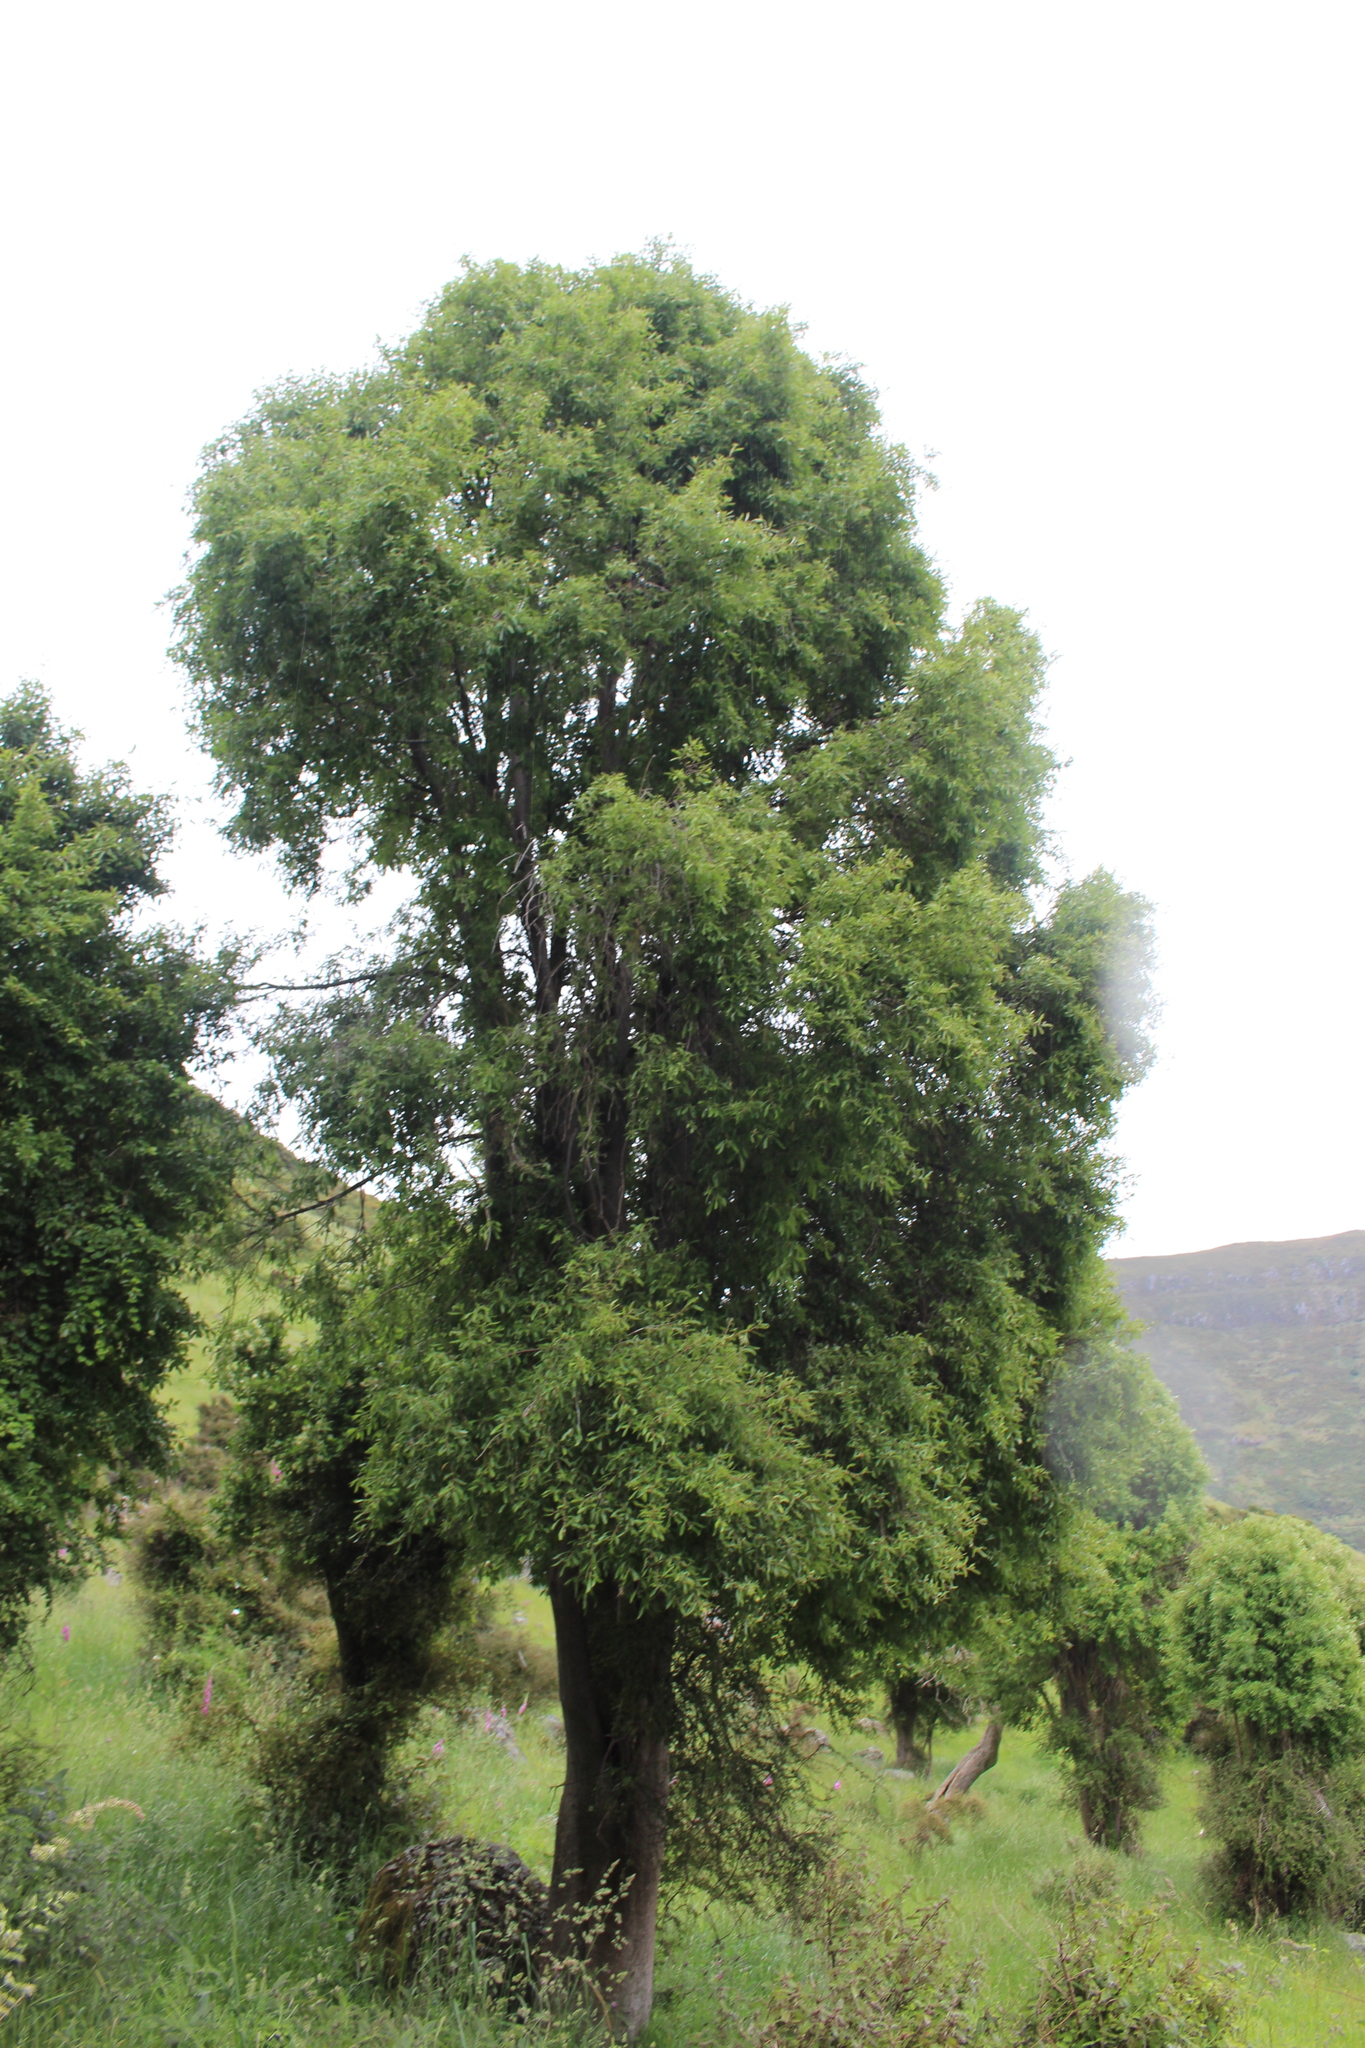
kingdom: Plantae
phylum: Tracheophyta
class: Magnoliopsida
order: Malvales
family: Malvaceae
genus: Hoheria
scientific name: Hoheria angustifolia
